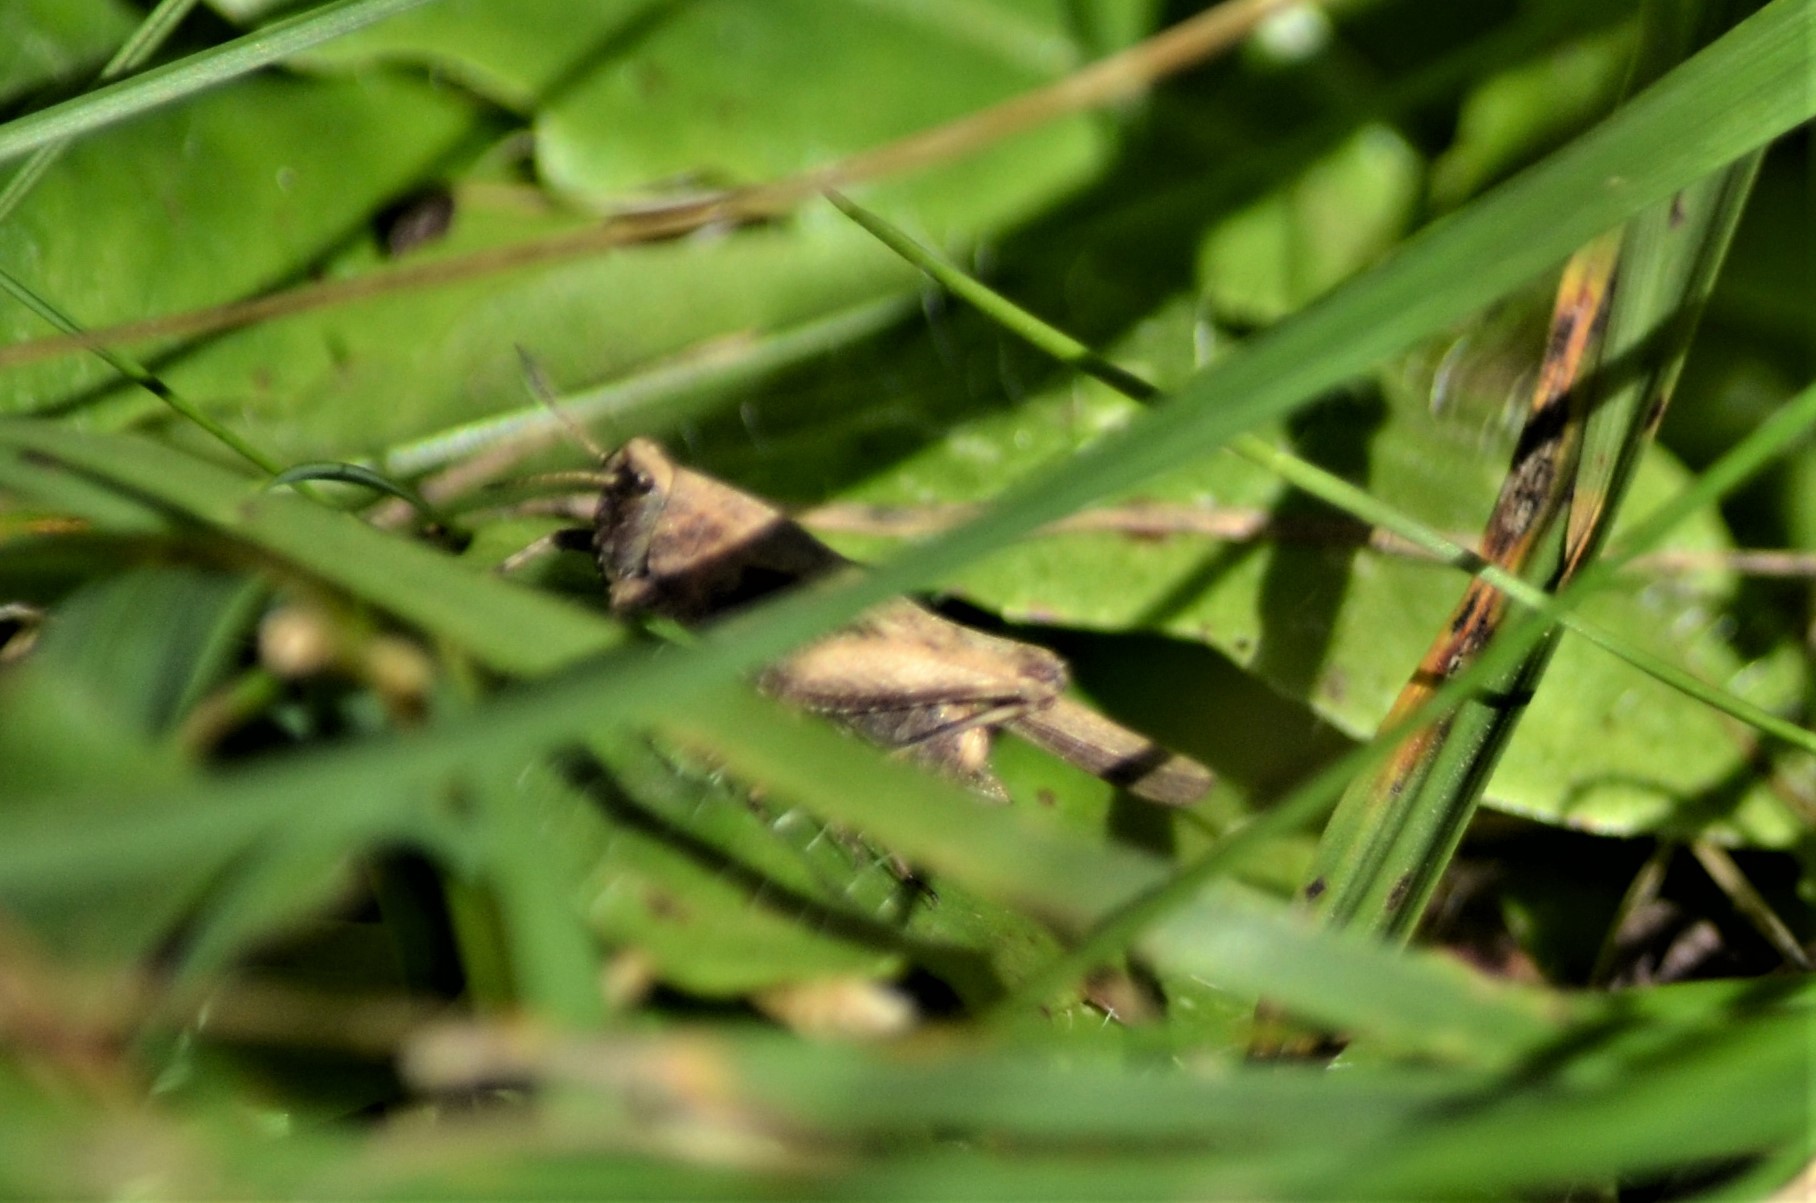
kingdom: Animalia
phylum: Arthropoda
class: Insecta
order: Orthoptera
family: Tetrigidae
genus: Tetrix
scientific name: Tetrix subulata
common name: Slender ground-hopper
